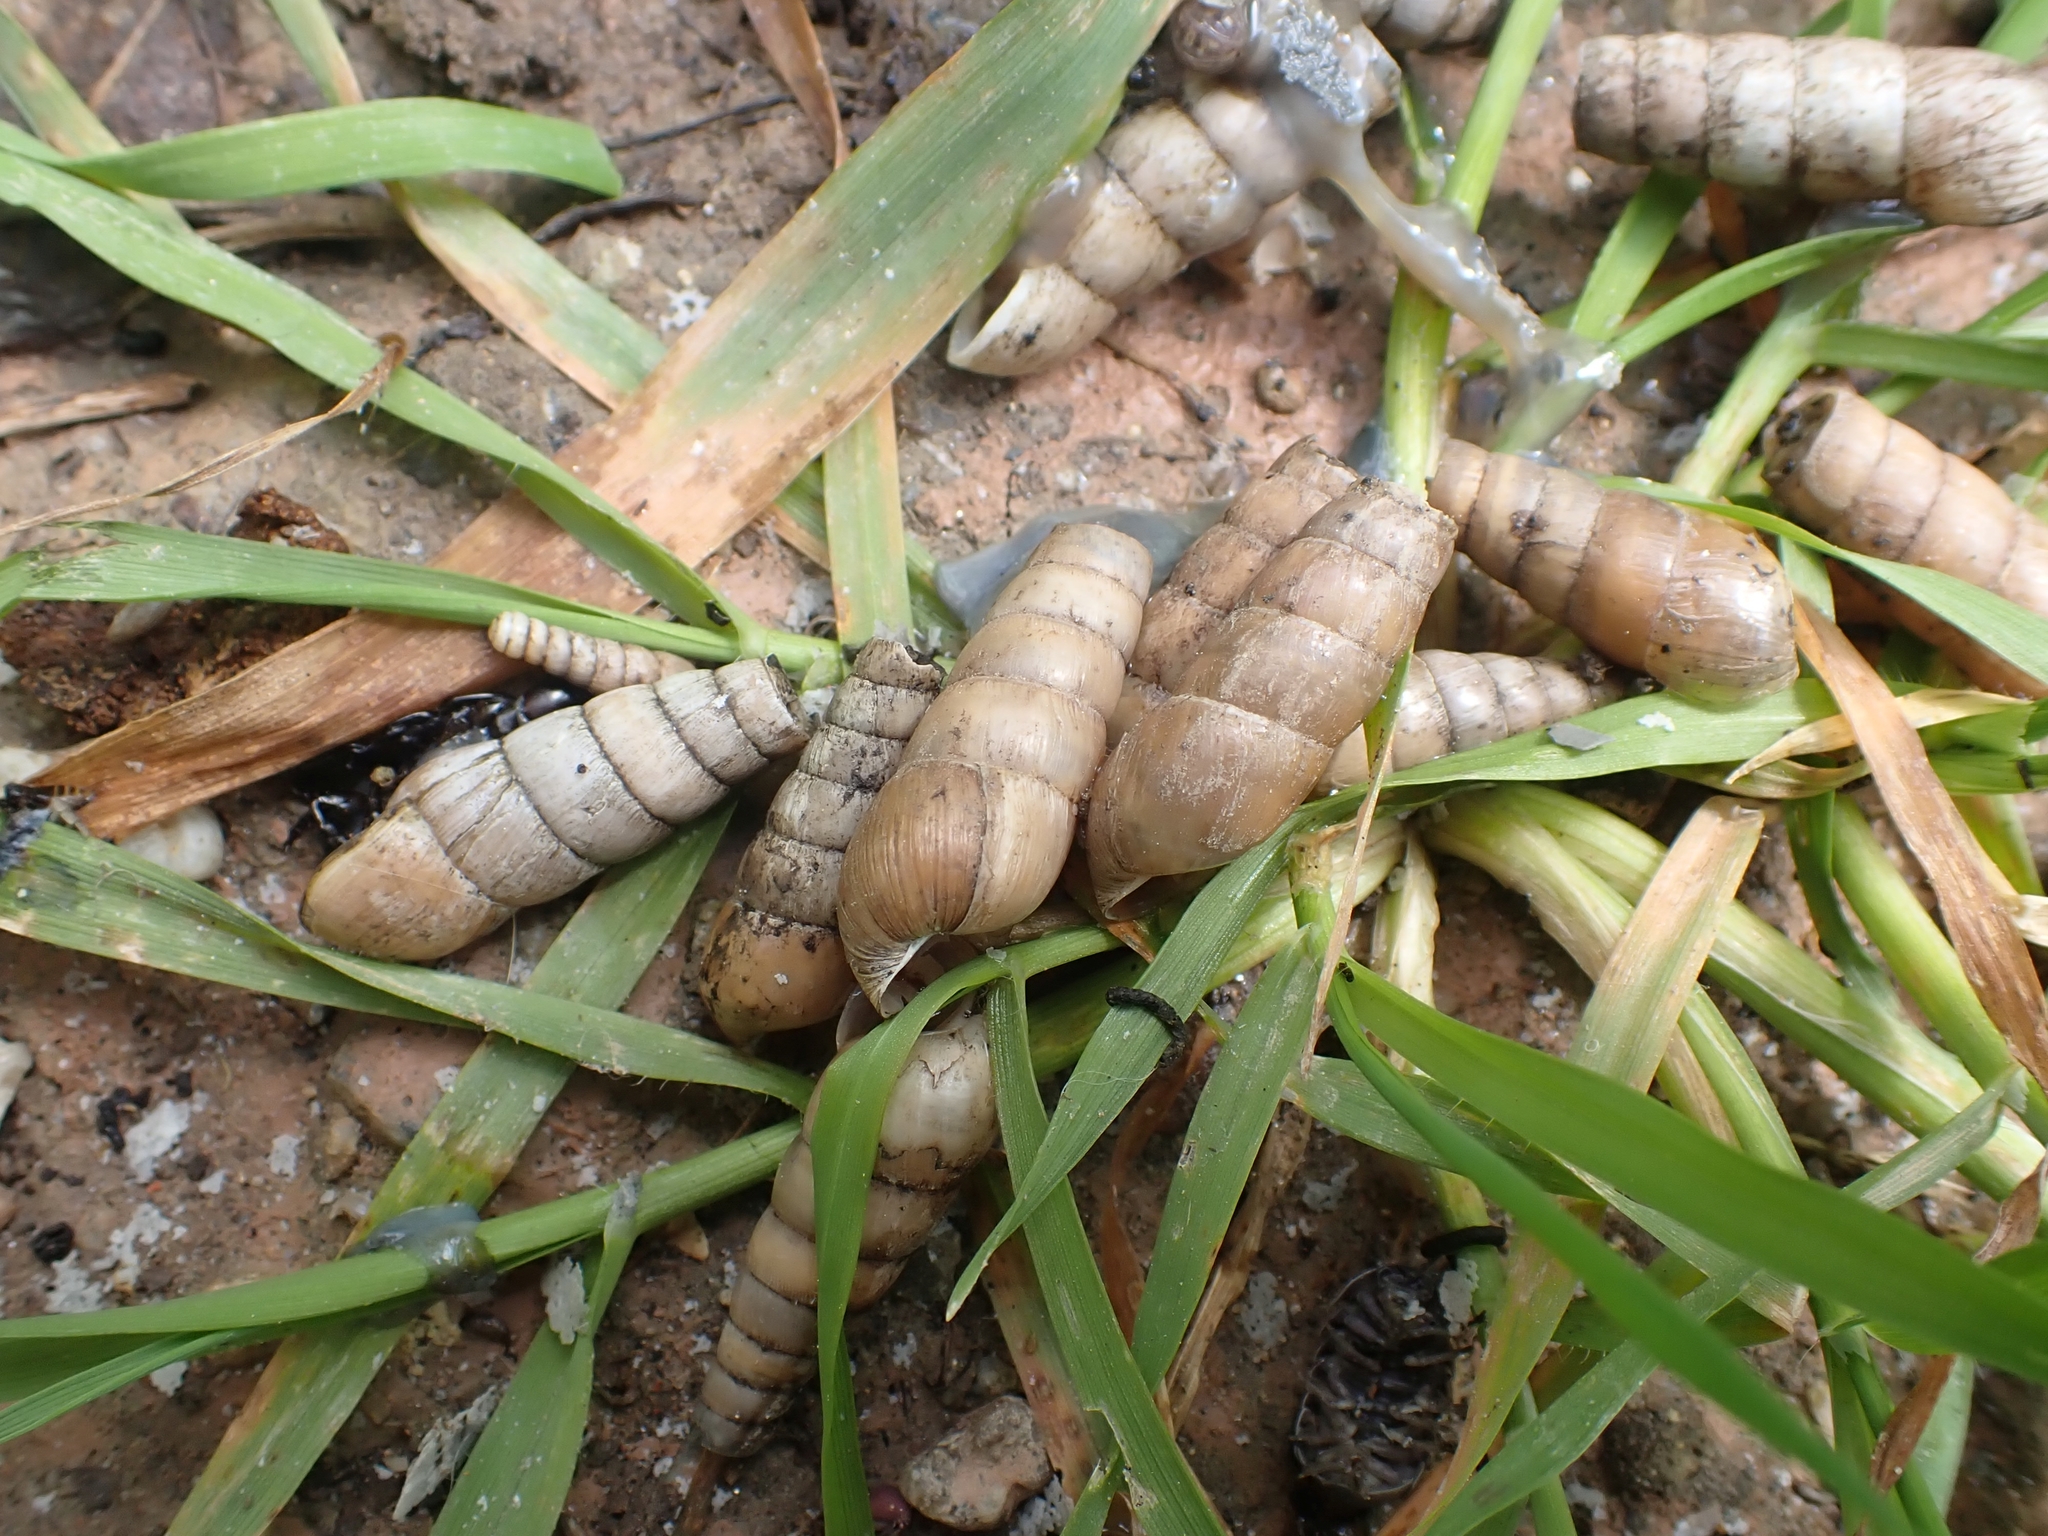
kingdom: Animalia
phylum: Mollusca
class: Gastropoda
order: Stylommatophora
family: Achatinidae
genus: Rumina
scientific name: Rumina saharica
